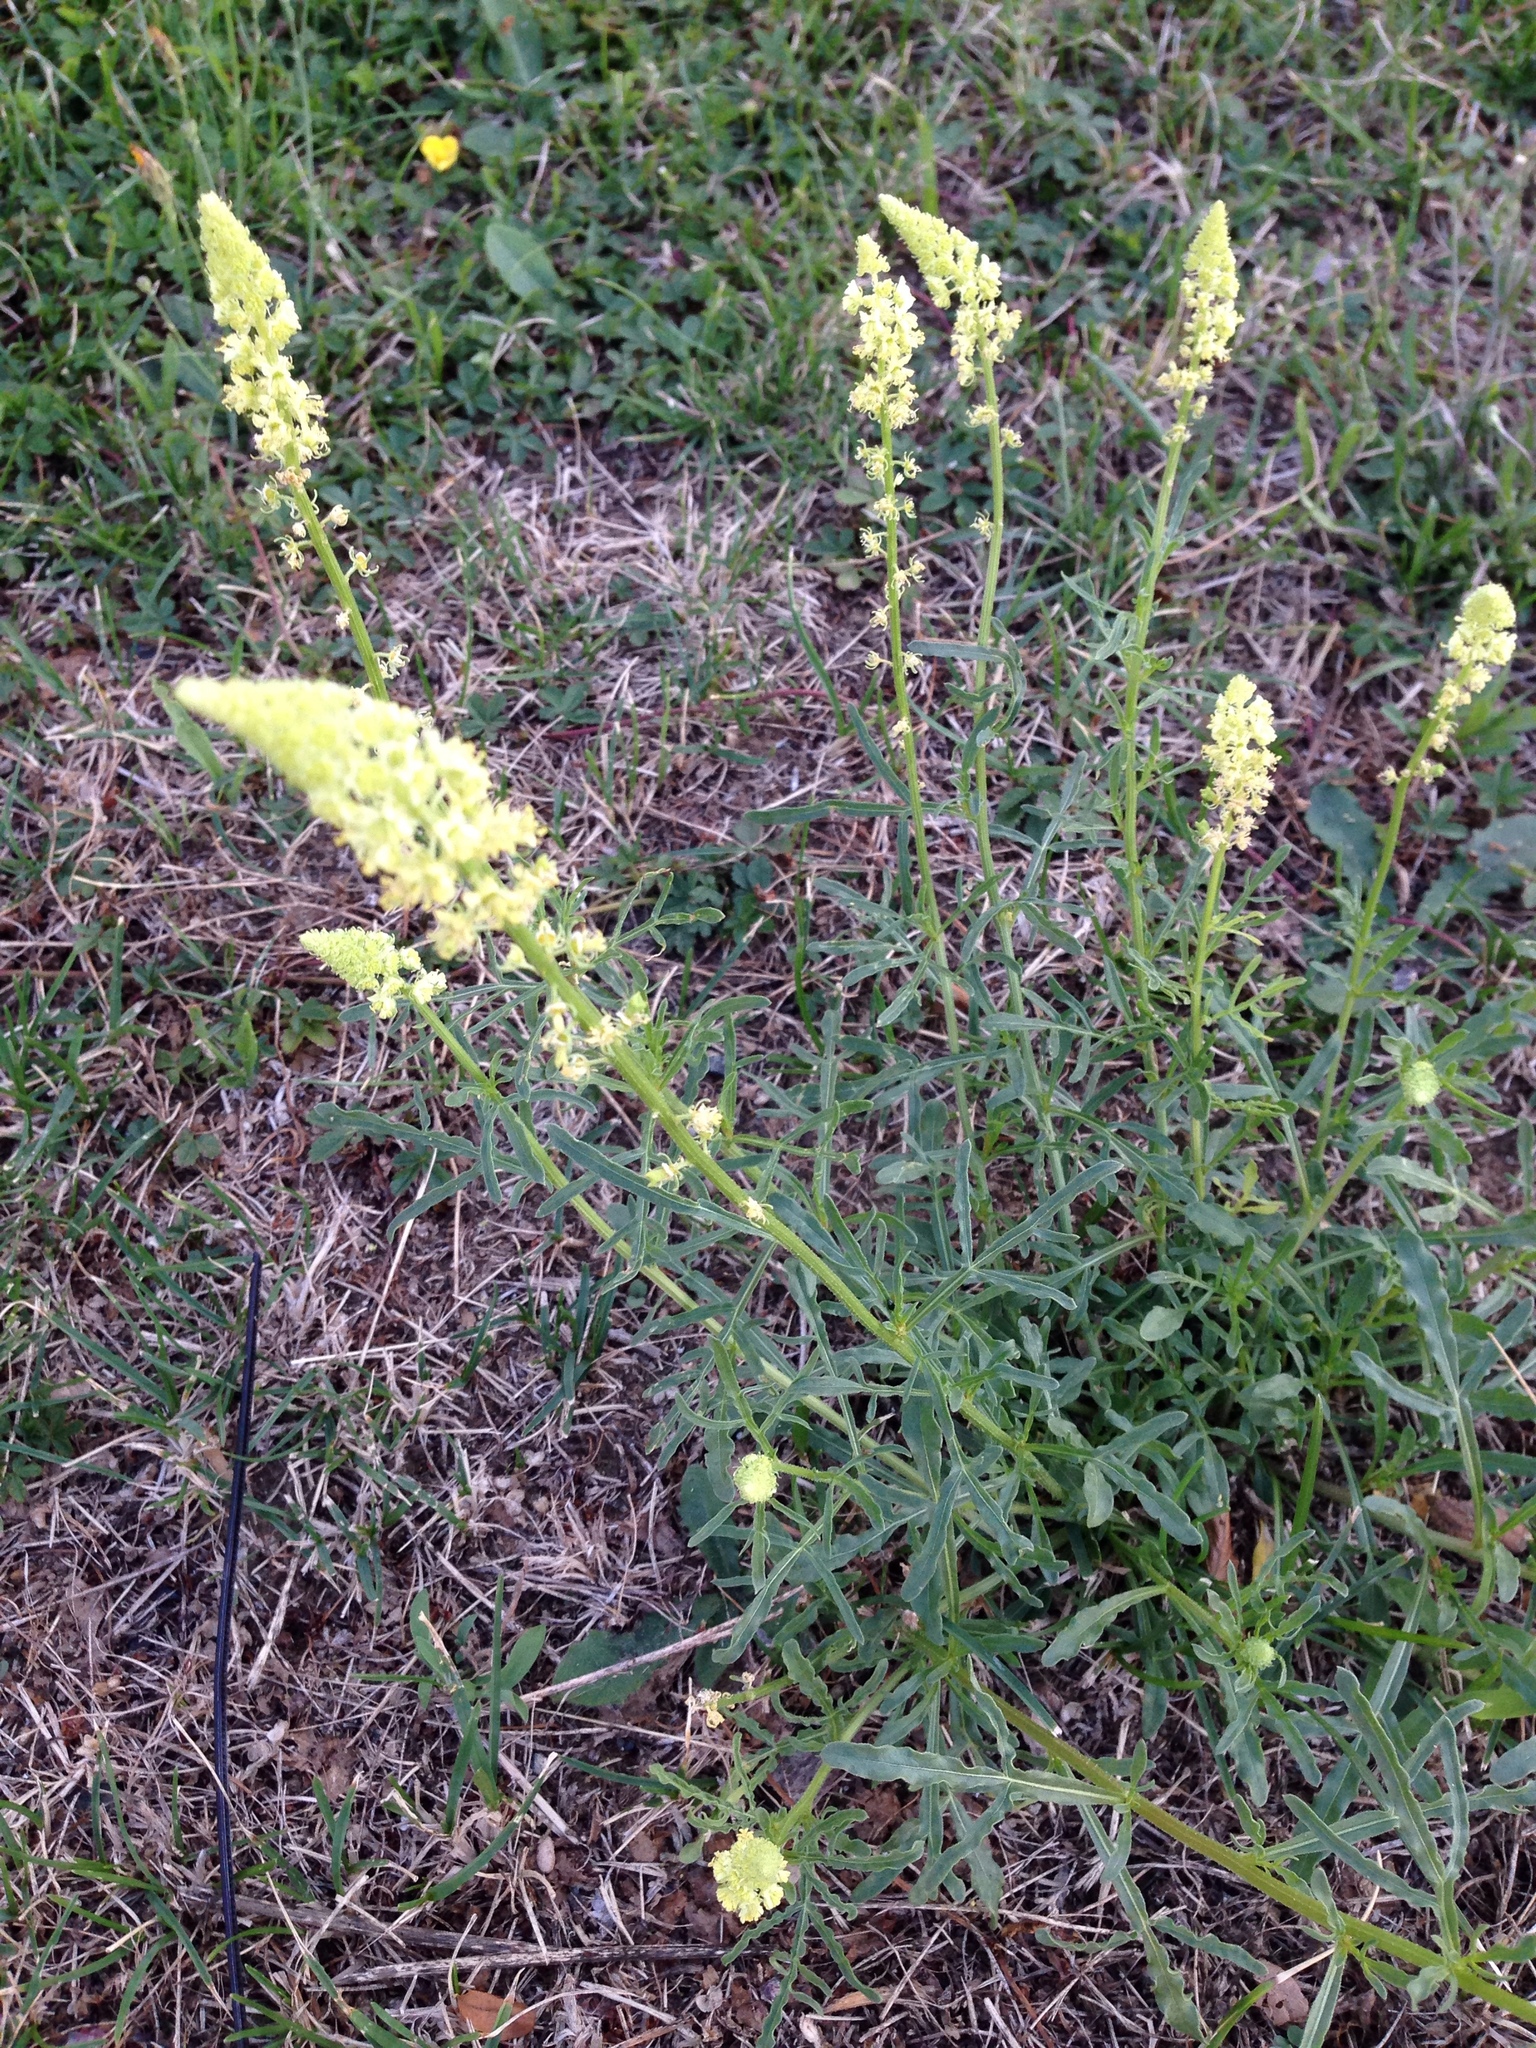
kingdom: Plantae
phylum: Tracheophyta
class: Magnoliopsida
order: Brassicales
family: Resedaceae
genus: Reseda
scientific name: Reseda lutea
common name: Wild mignonette
